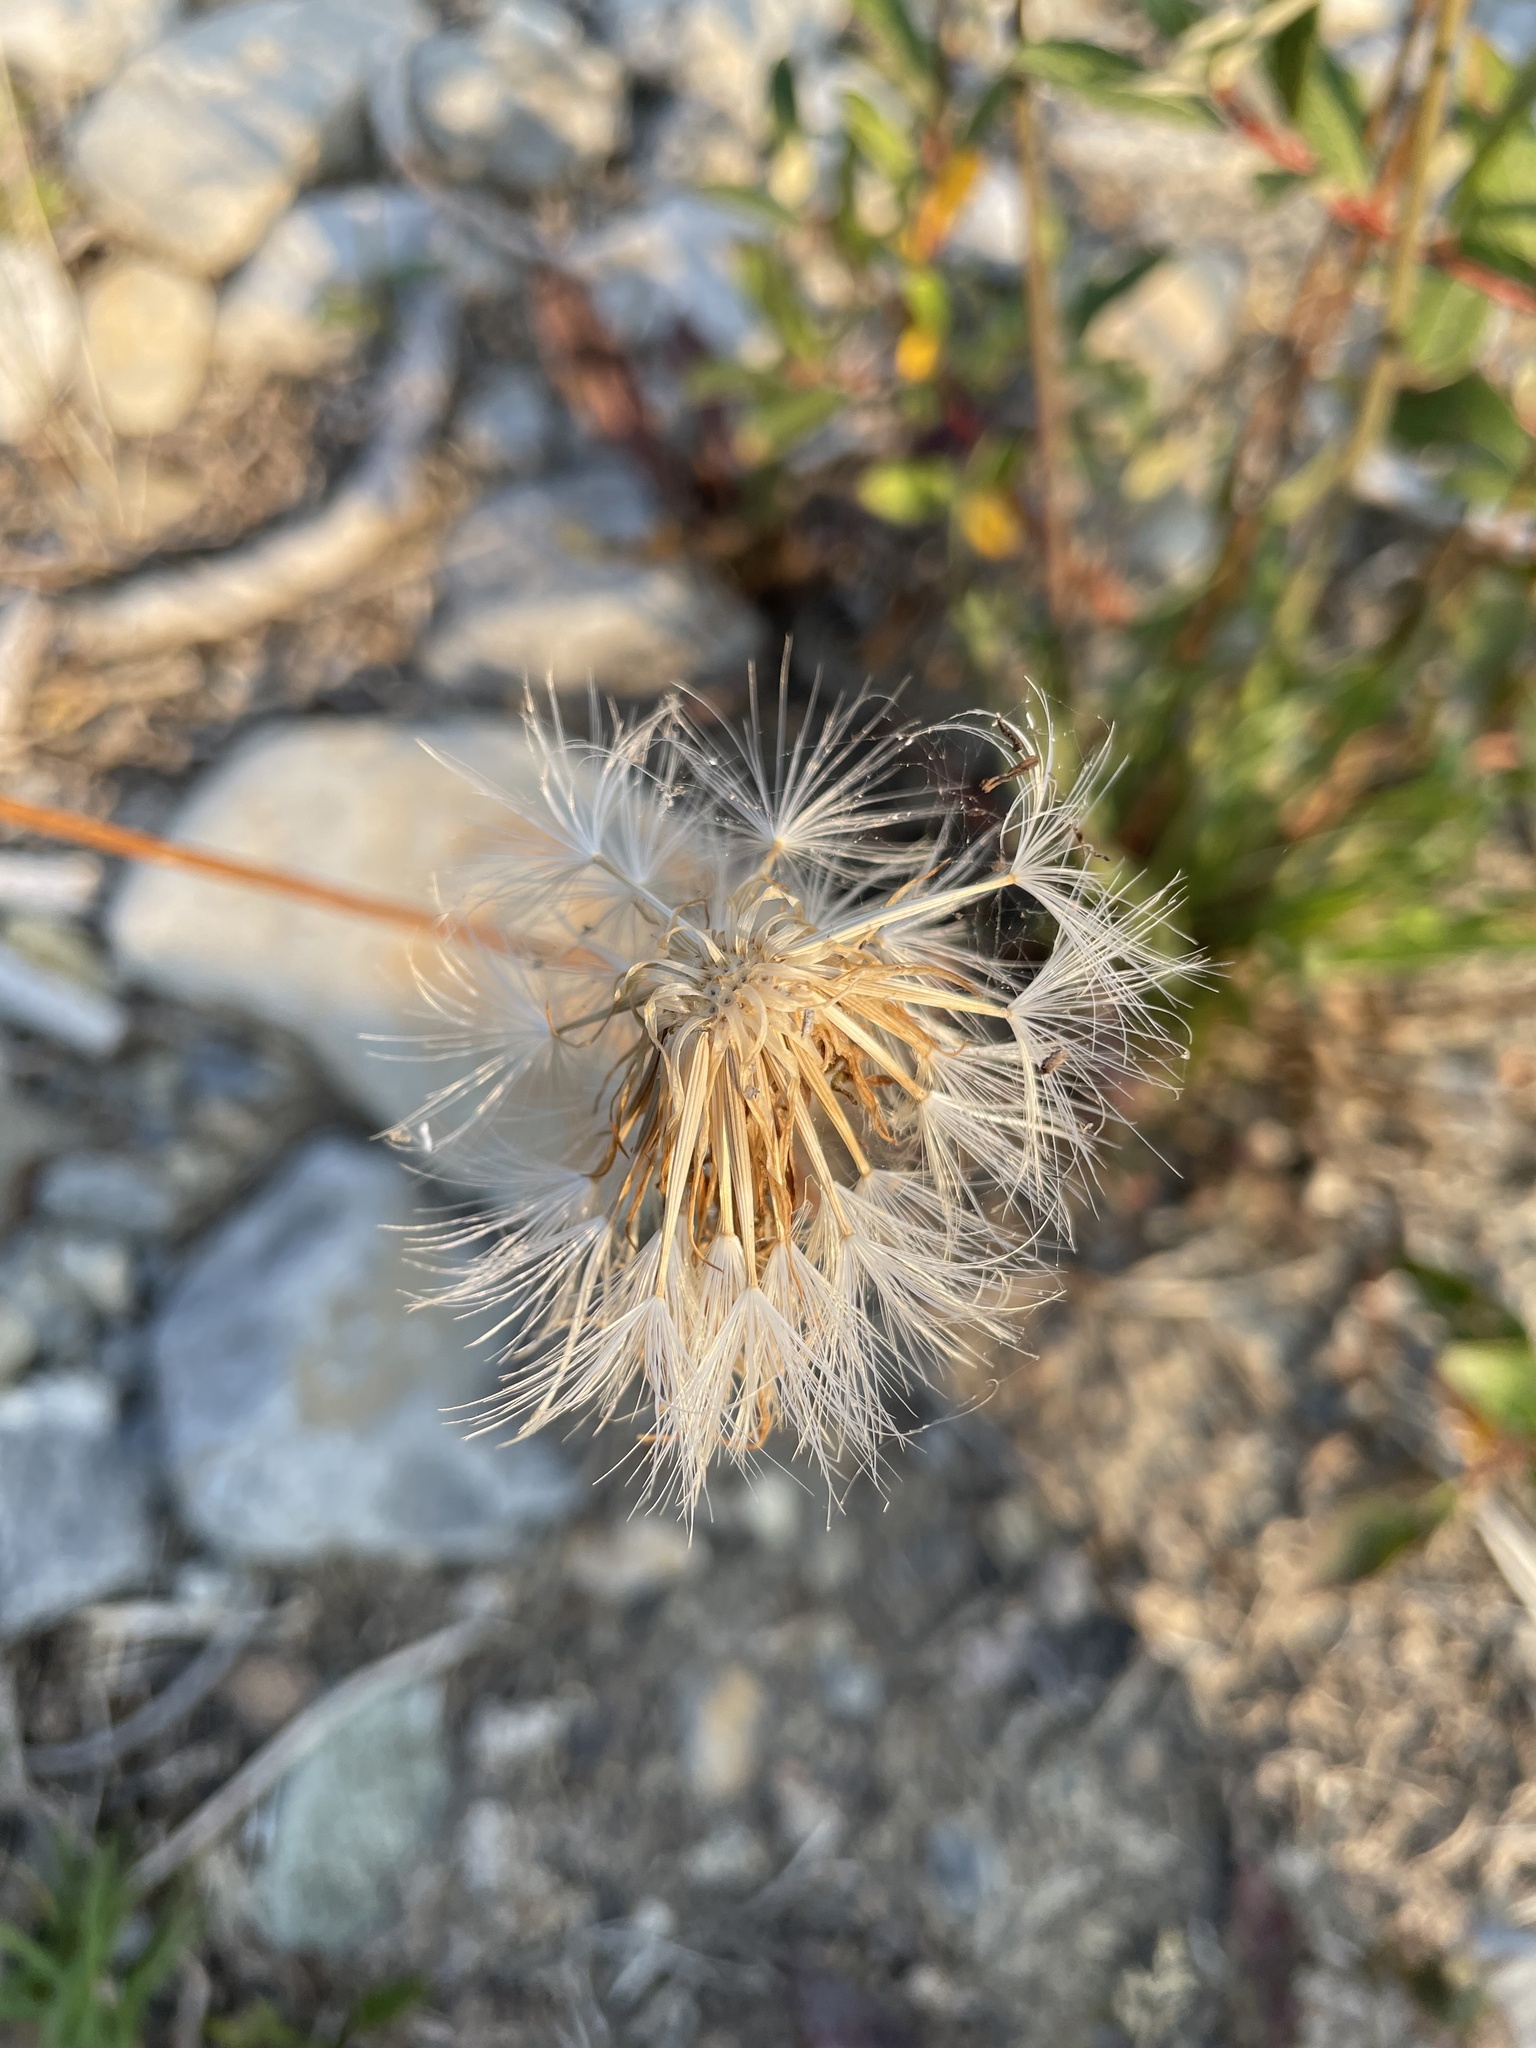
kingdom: Plantae
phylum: Tracheophyta
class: Magnoliopsida
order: Asterales
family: Asteraceae
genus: Agoseris
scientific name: Agoseris glauca
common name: Prairie agoseris
